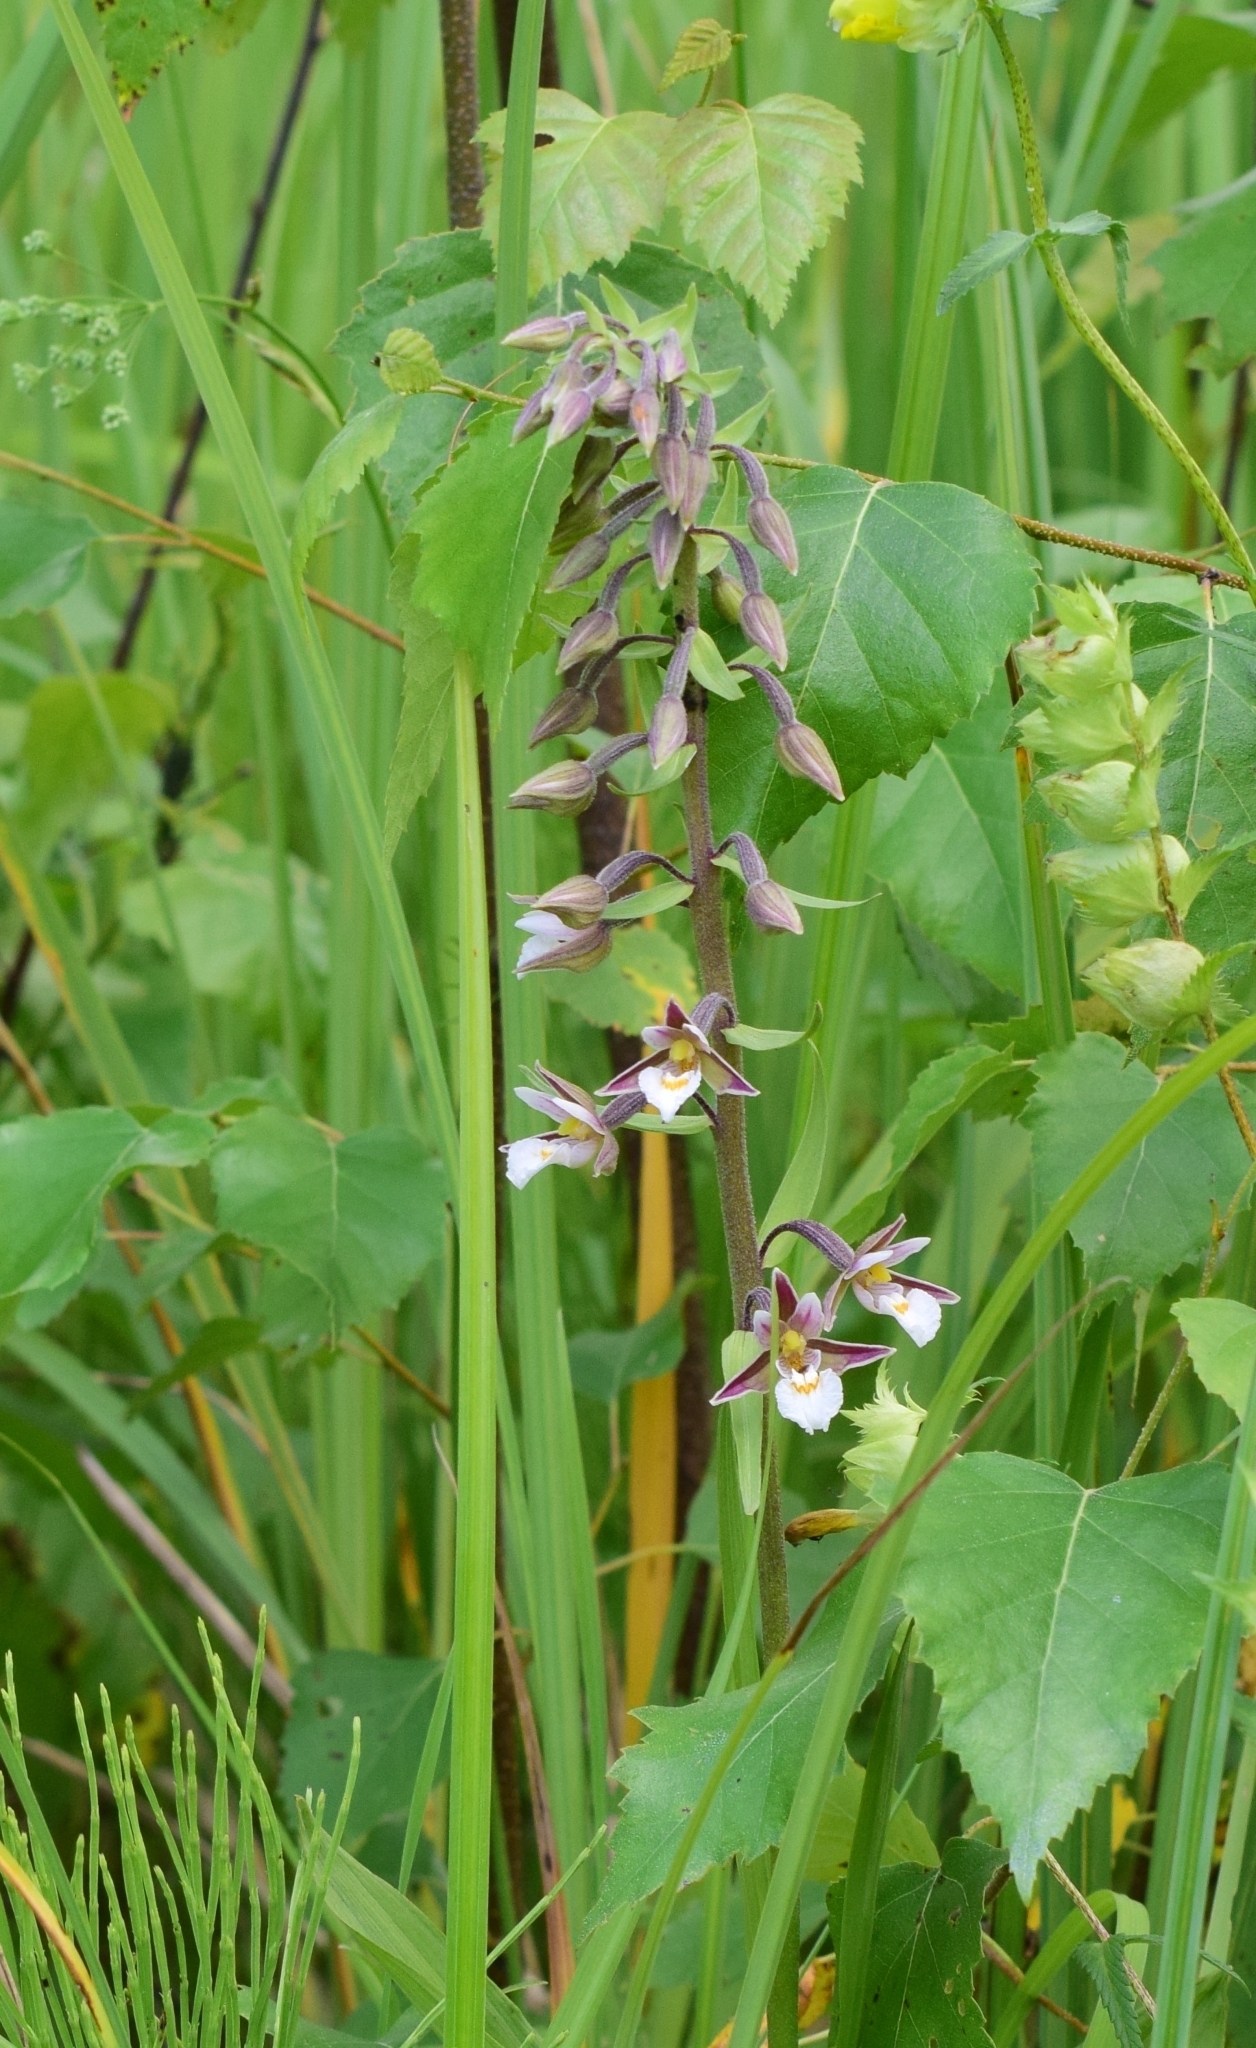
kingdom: Plantae
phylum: Tracheophyta
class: Liliopsida
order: Asparagales
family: Orchidaceae
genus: Epipactis
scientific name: Epipactis palustris
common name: Marsh helleborine
